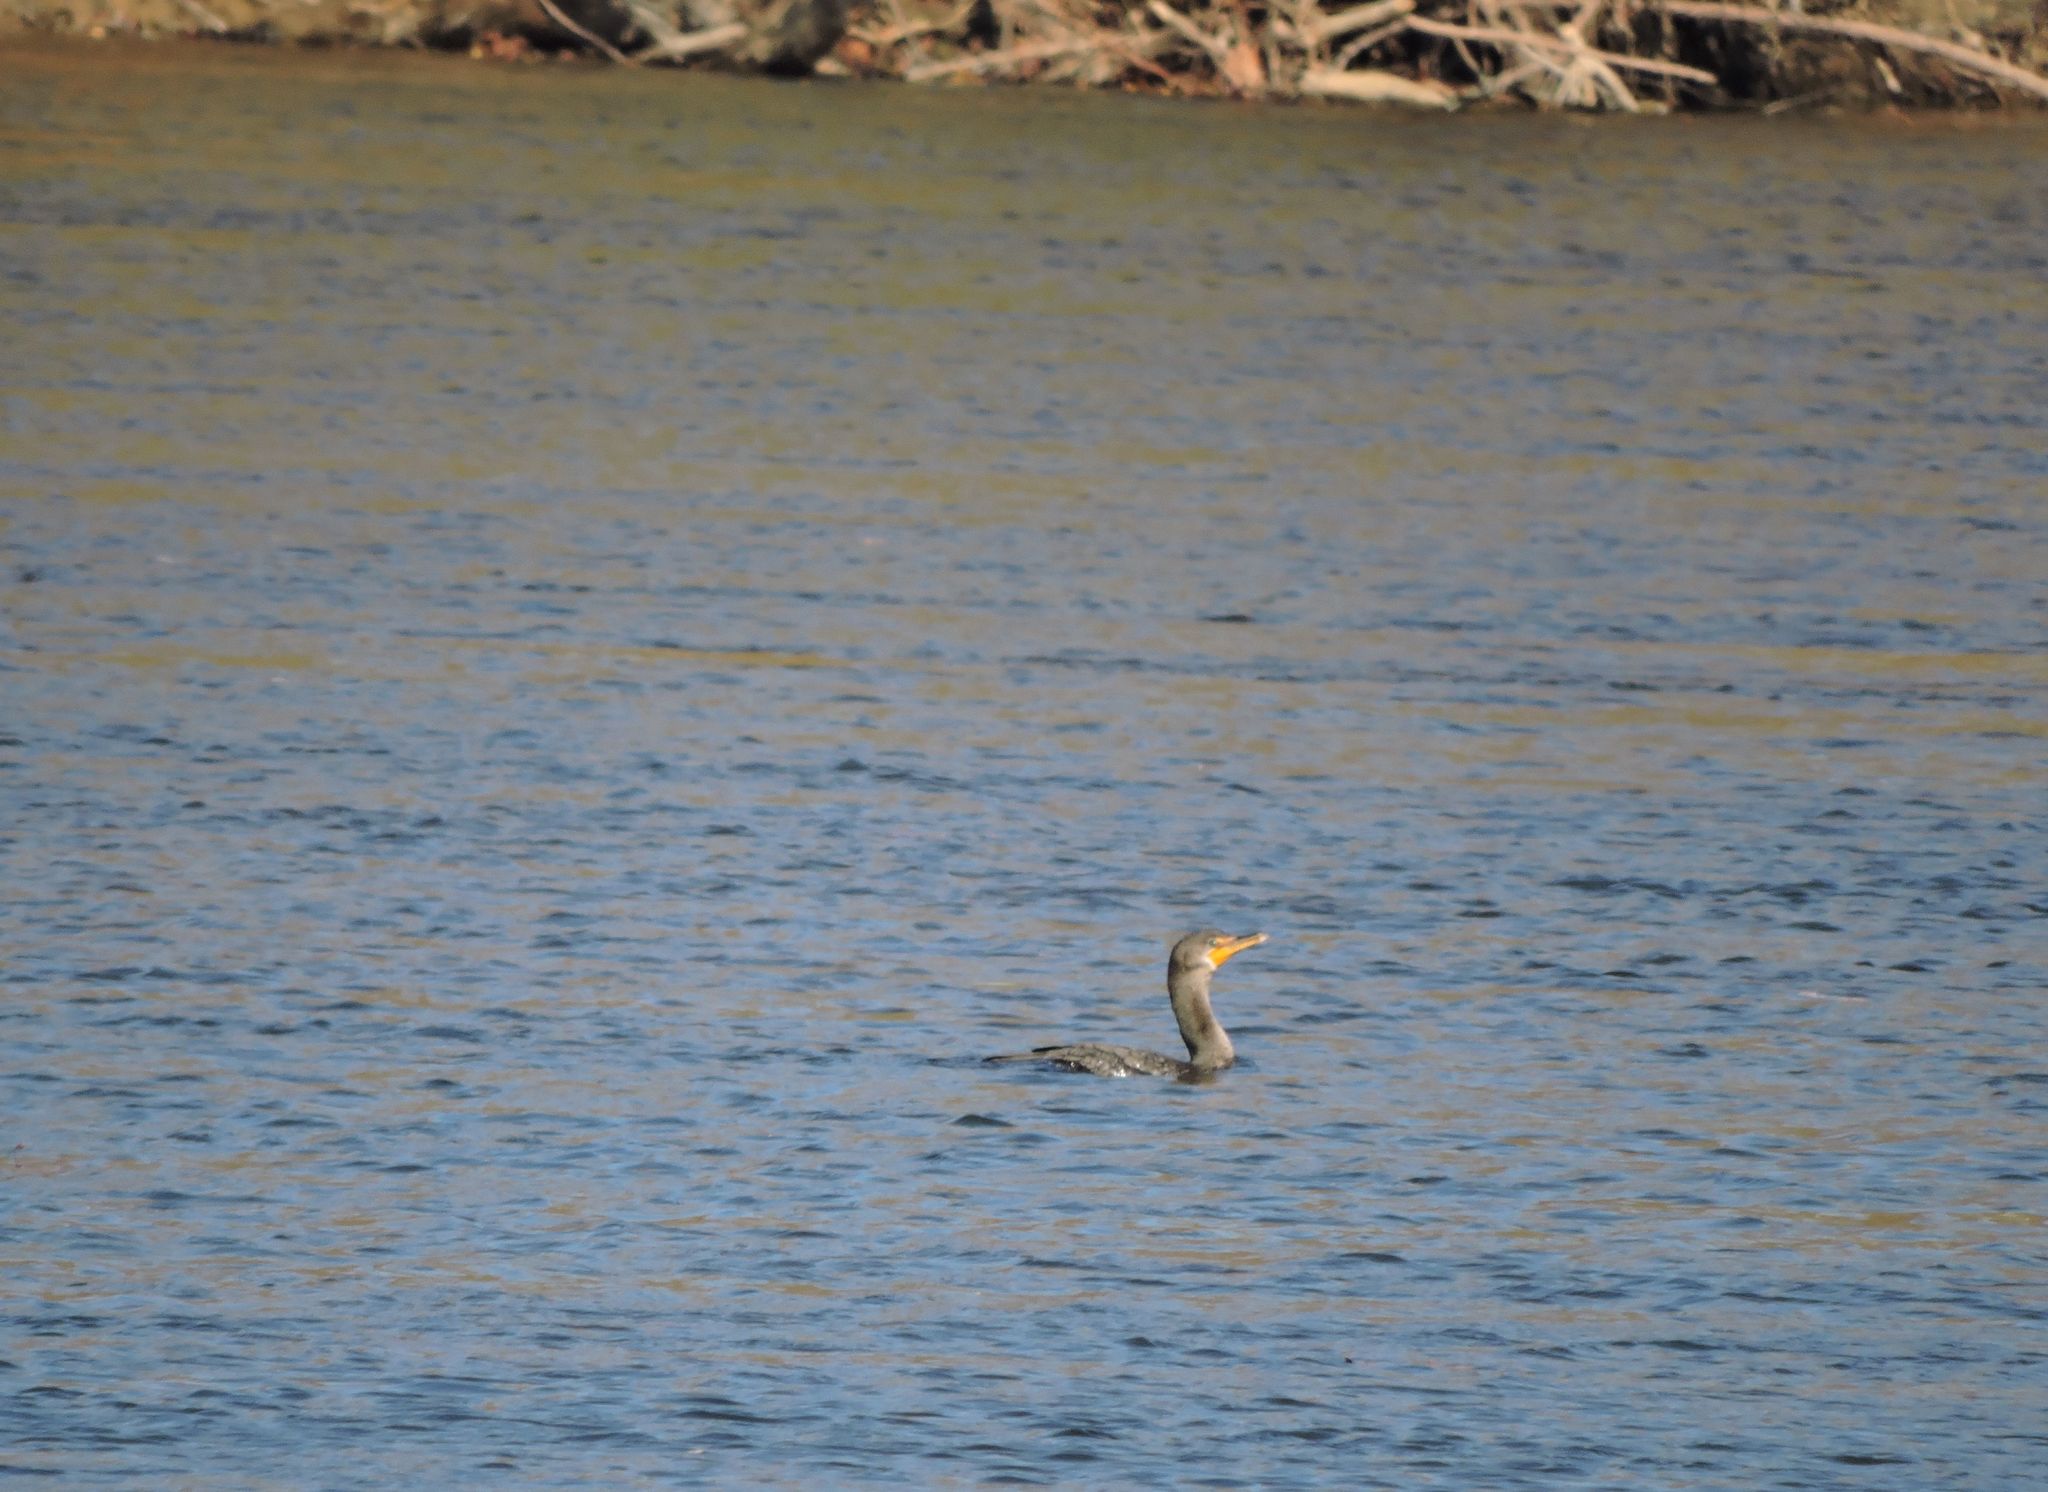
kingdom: Animalia
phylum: Chordata
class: Aves
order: Suliformes
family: Phalacrocoracidae
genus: Phalacrocorax
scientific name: Phalacrocorax auritus
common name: Double-crested cormorant
